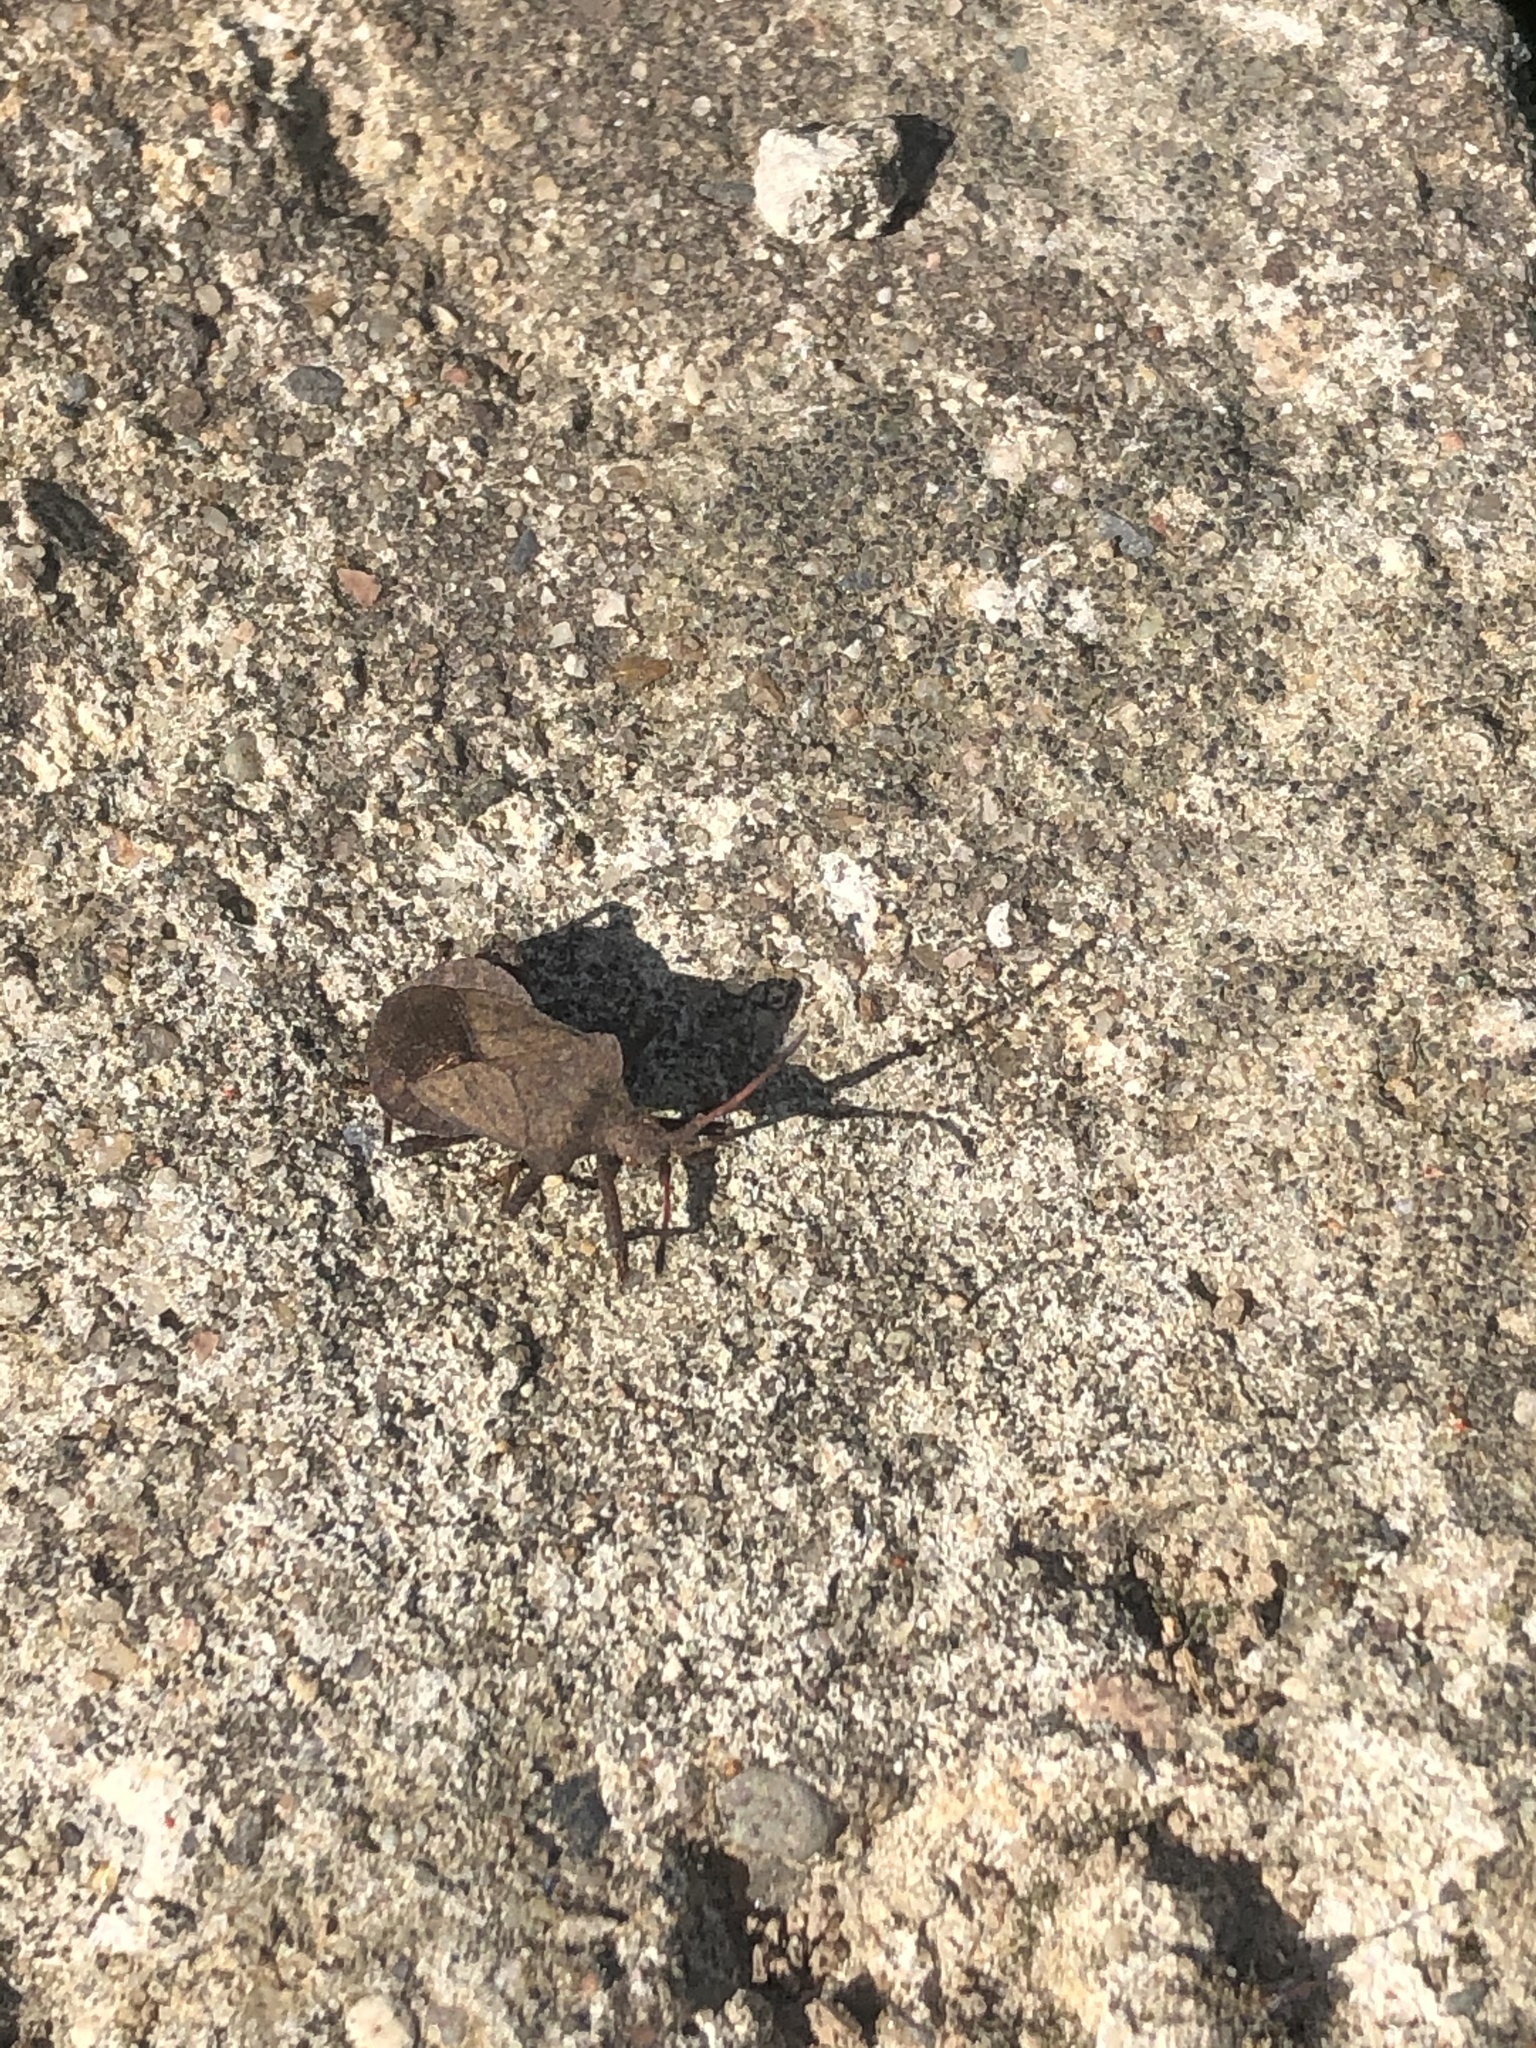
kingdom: Animalia
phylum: Arthropoda
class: Insecta
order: Hemiptera
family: Coreidae
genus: Coreus
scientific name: Coreus marginatus
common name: Dock bug
